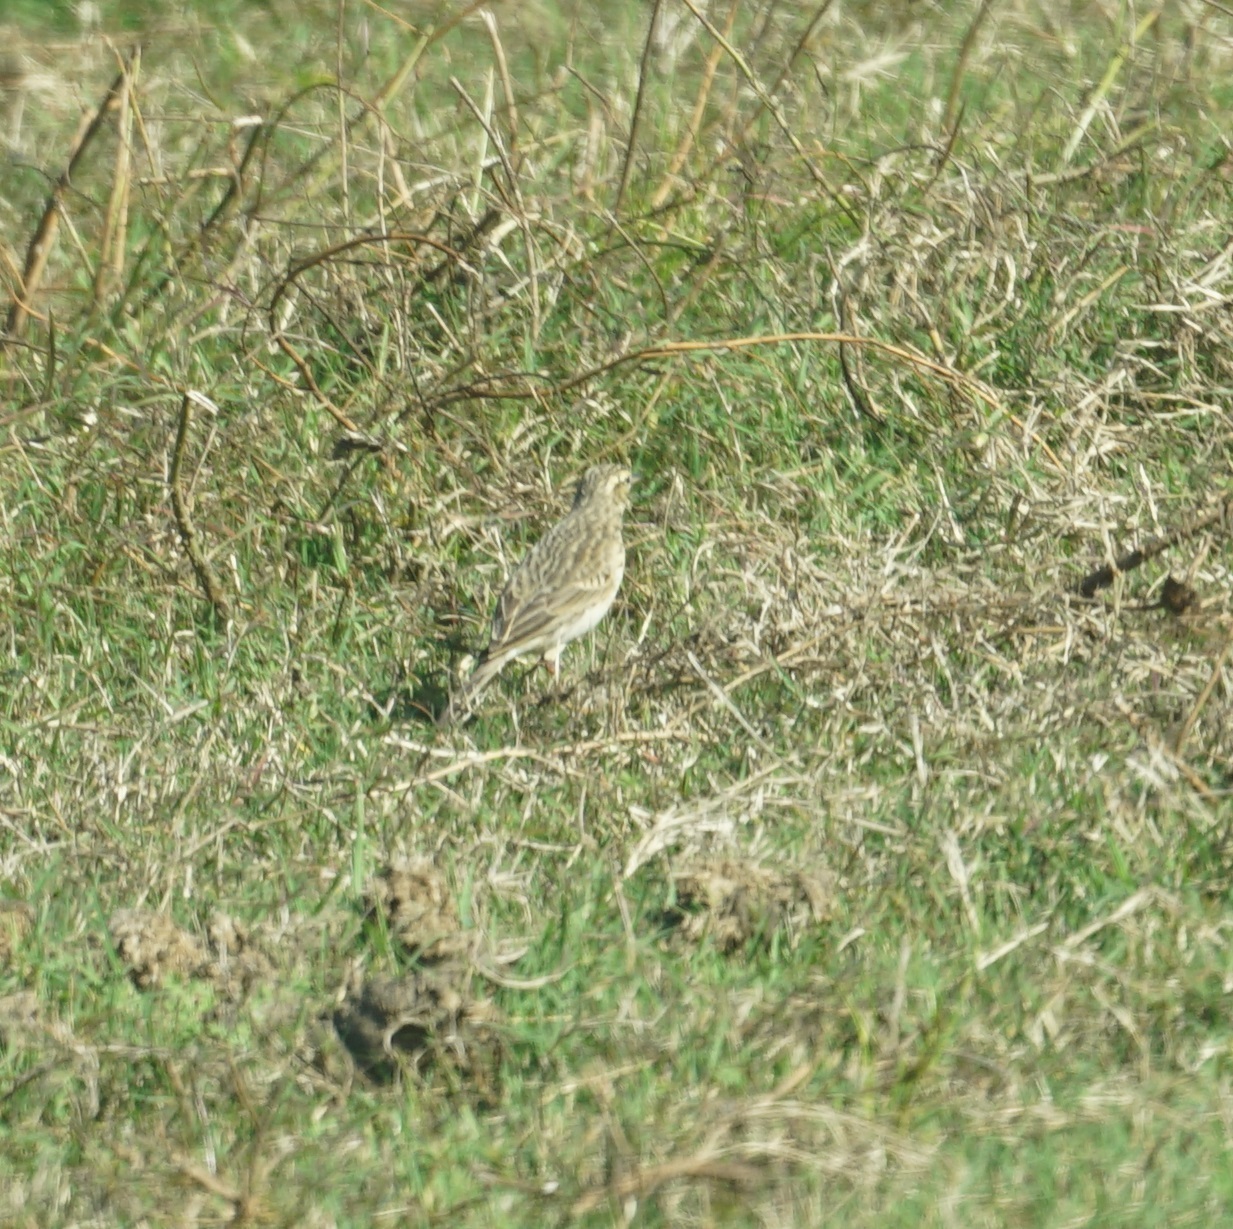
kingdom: Animalia
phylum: Chordata
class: Aves
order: Passeriformes
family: Motacillidae
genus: Anthus
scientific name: Anthus australis
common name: Australian pipit
